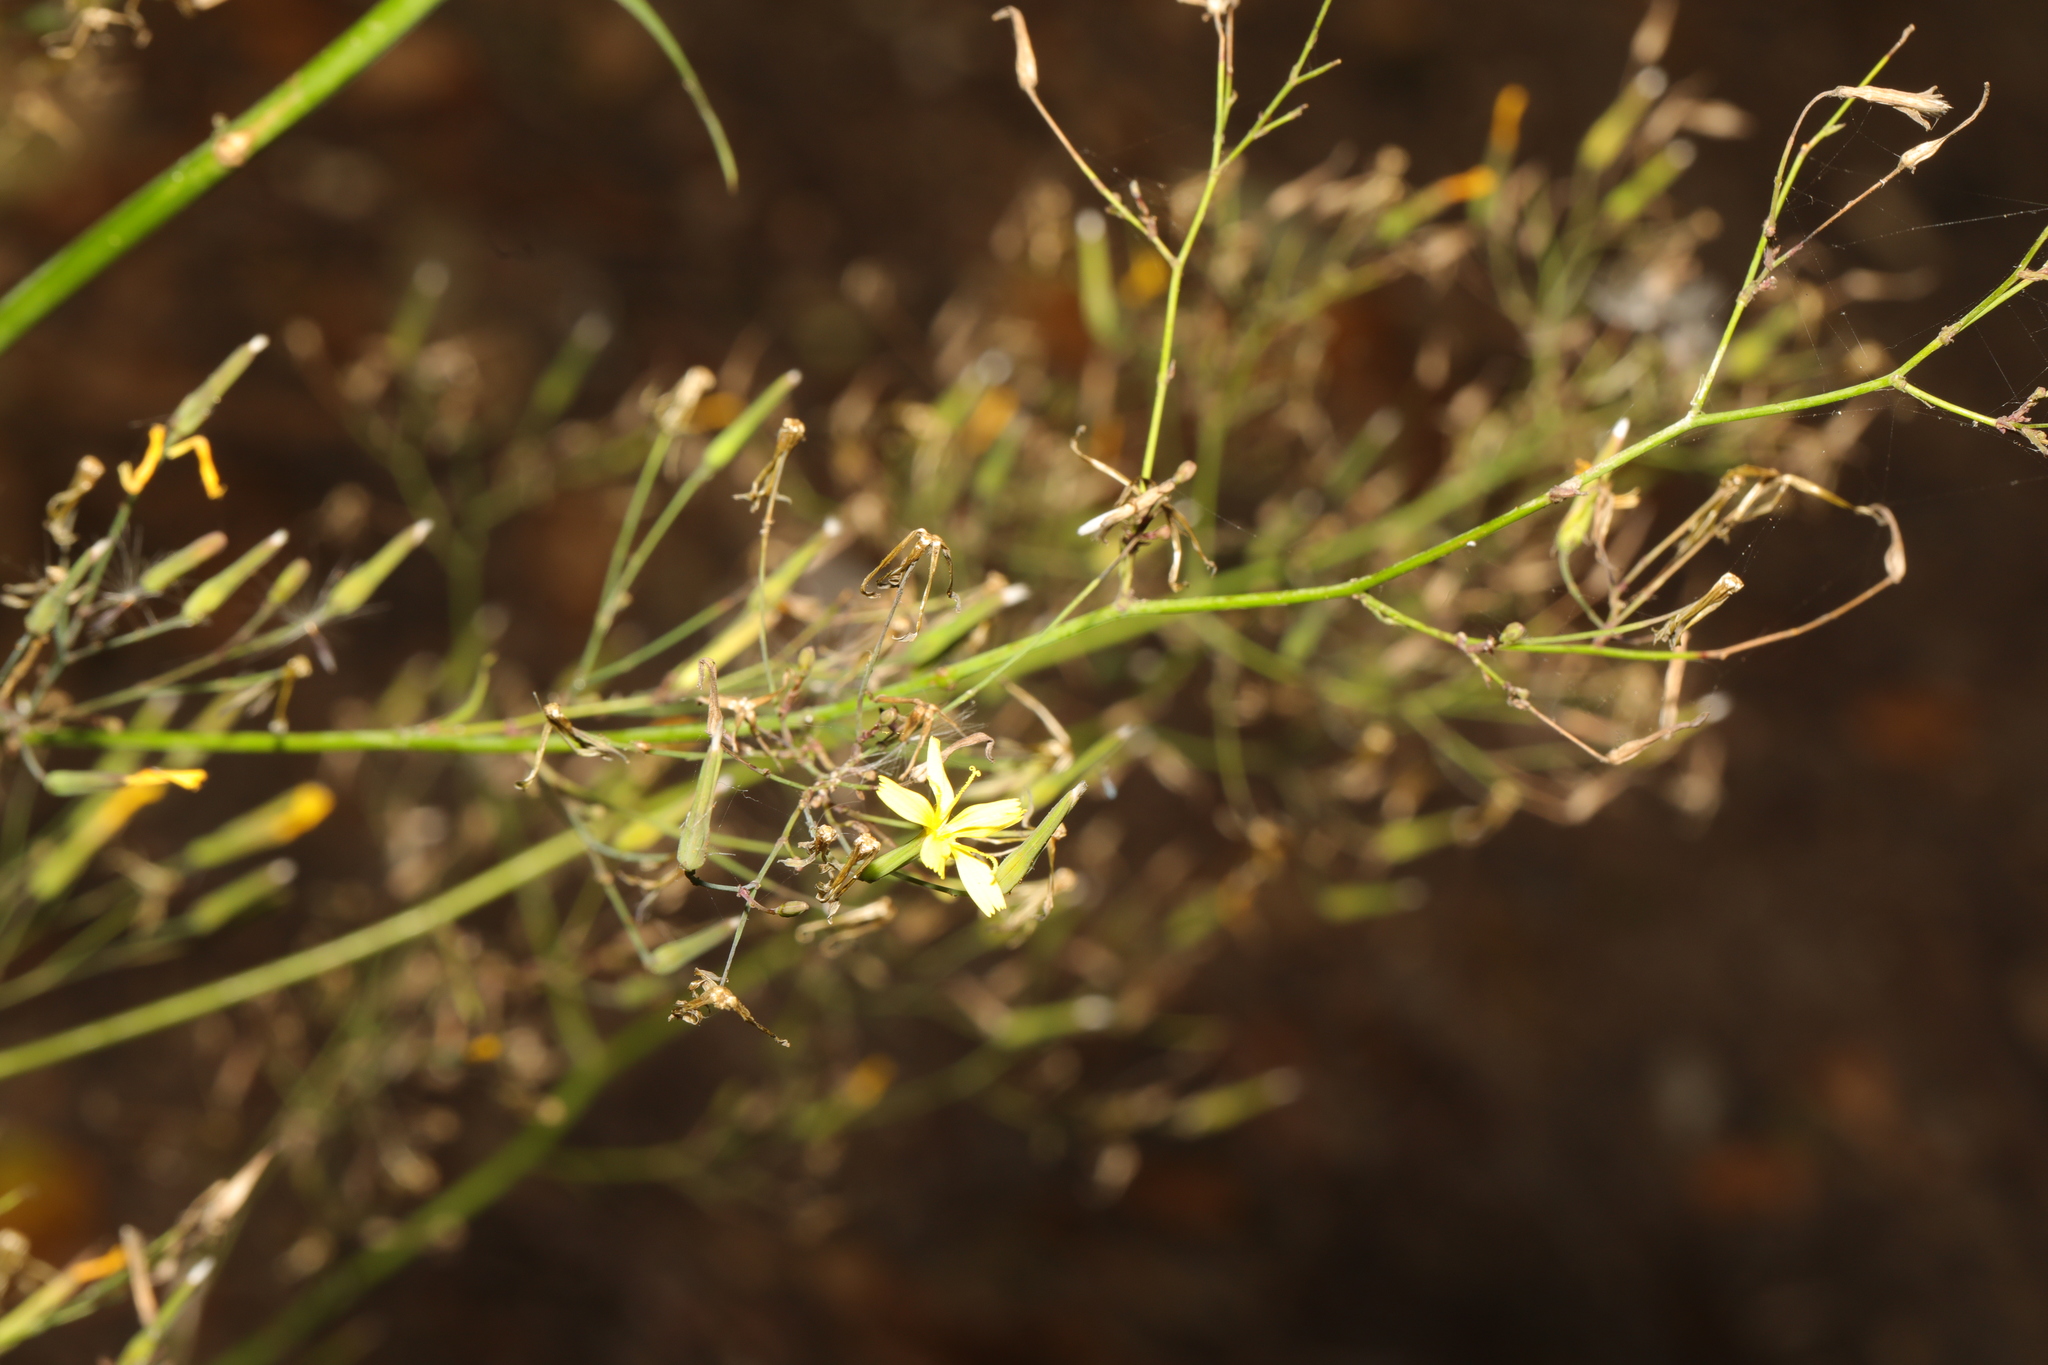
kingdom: Plantae
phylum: Tracheophyta
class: Magnoliopsida
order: Asterales
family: Asteraceae
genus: Mycelis
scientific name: Mycelis muralis
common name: Wall lettuce
